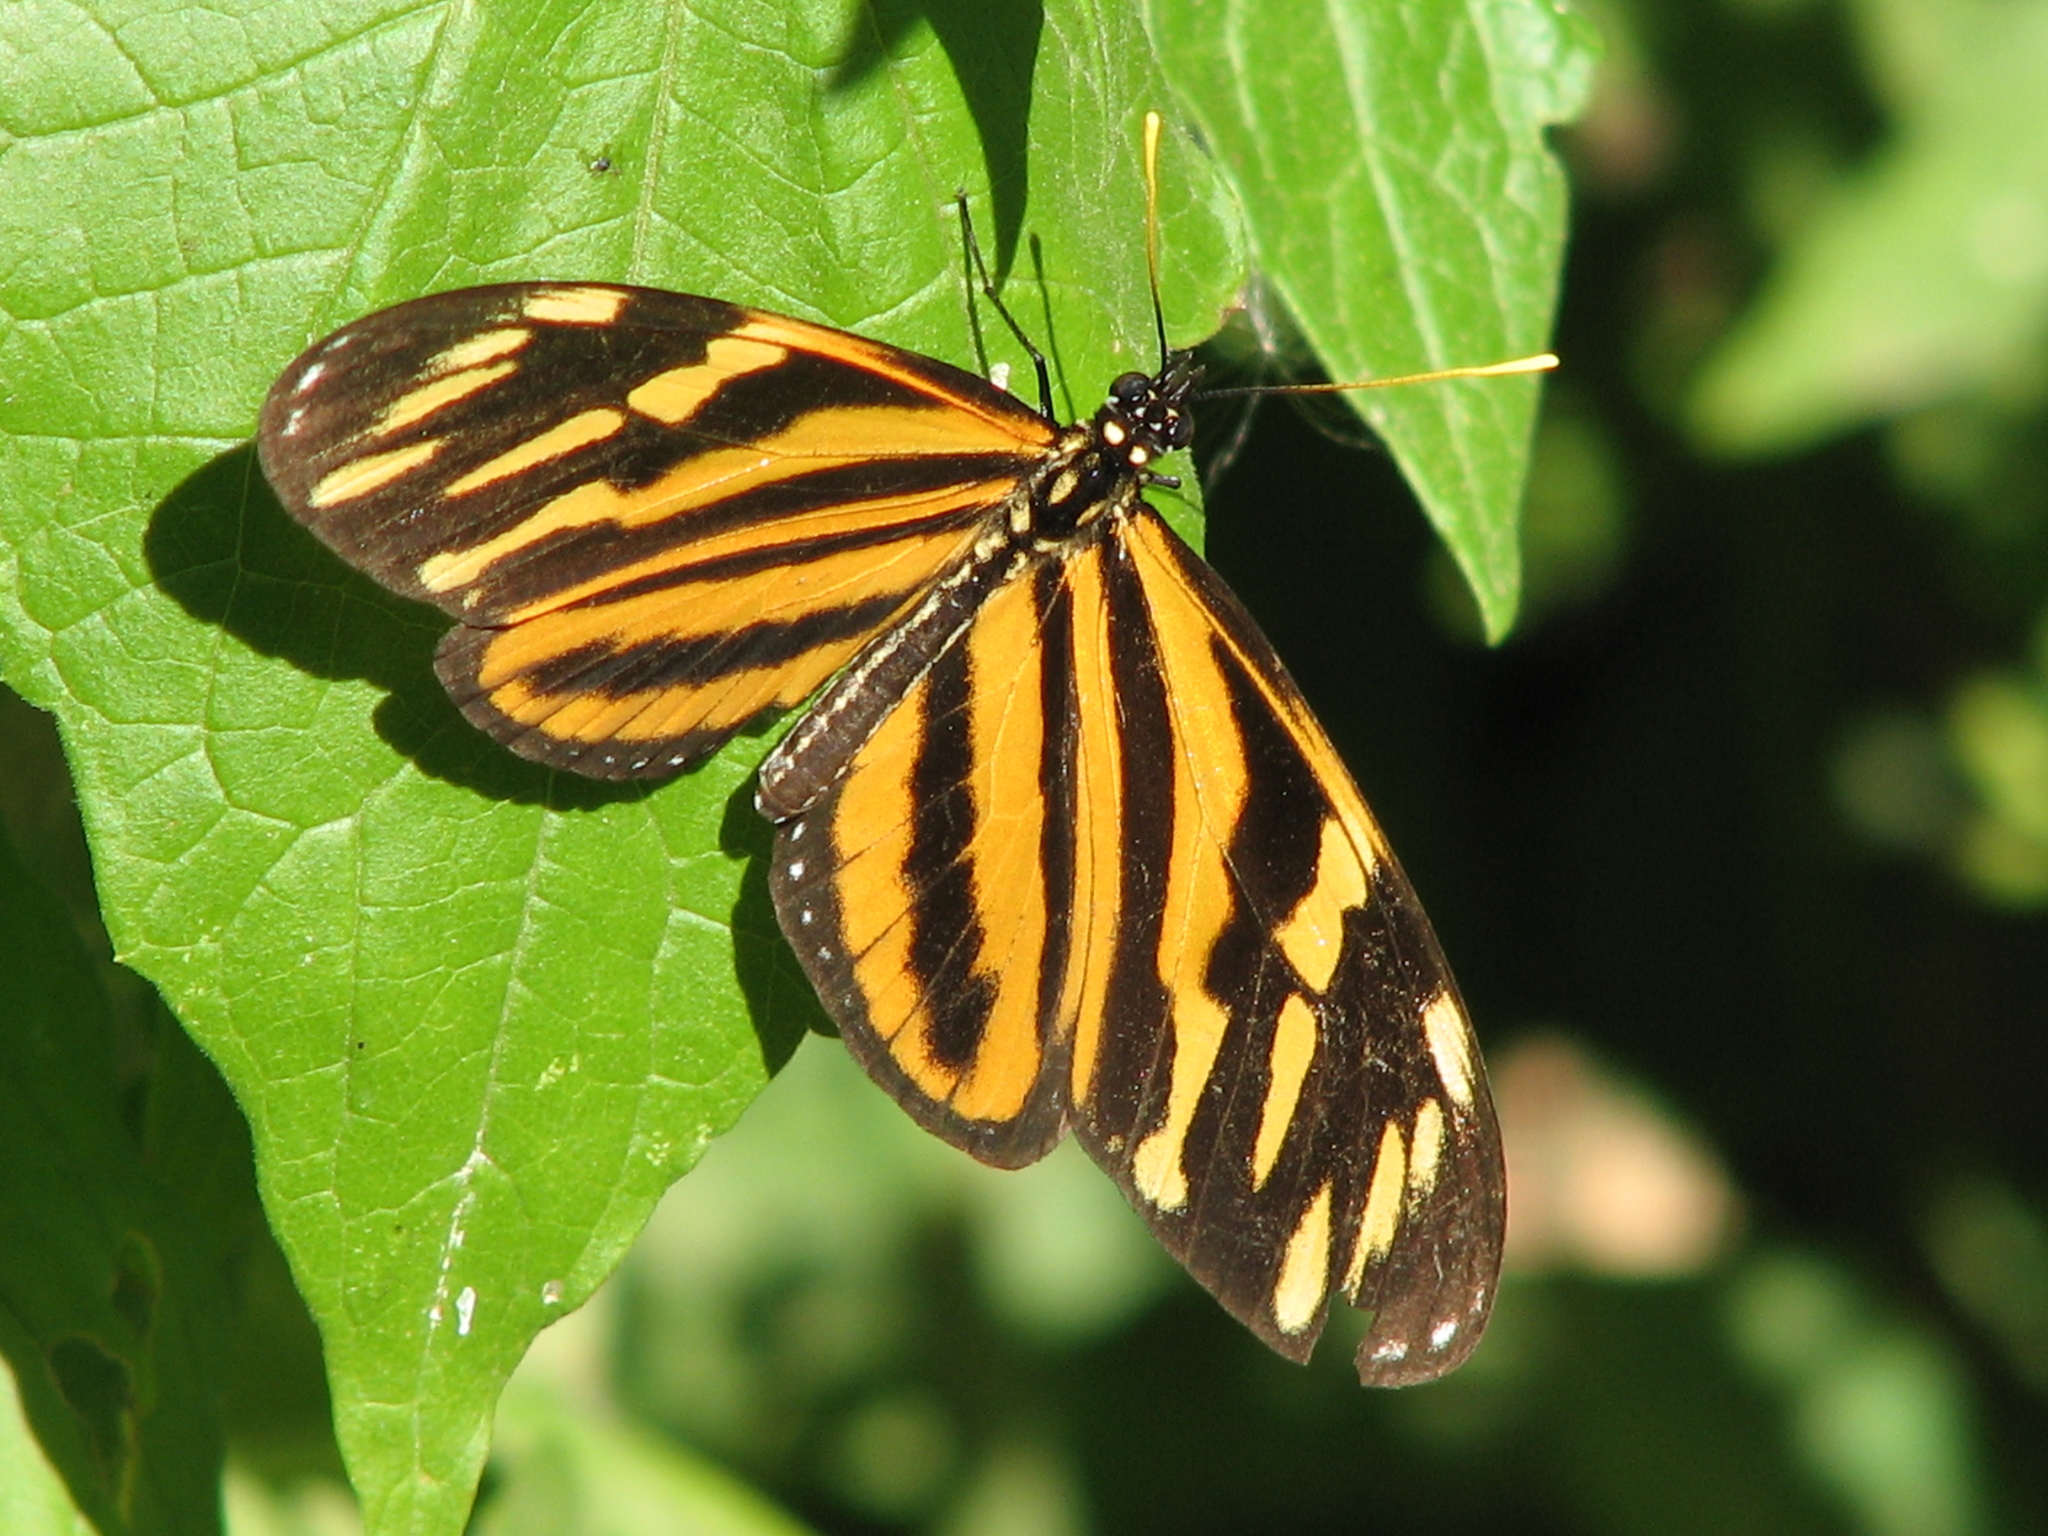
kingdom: Animalia
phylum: Arthropoda
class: Insecta
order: Lepidoptera
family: Nymphalidae
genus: Lycorea
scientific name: Lycorea eva
